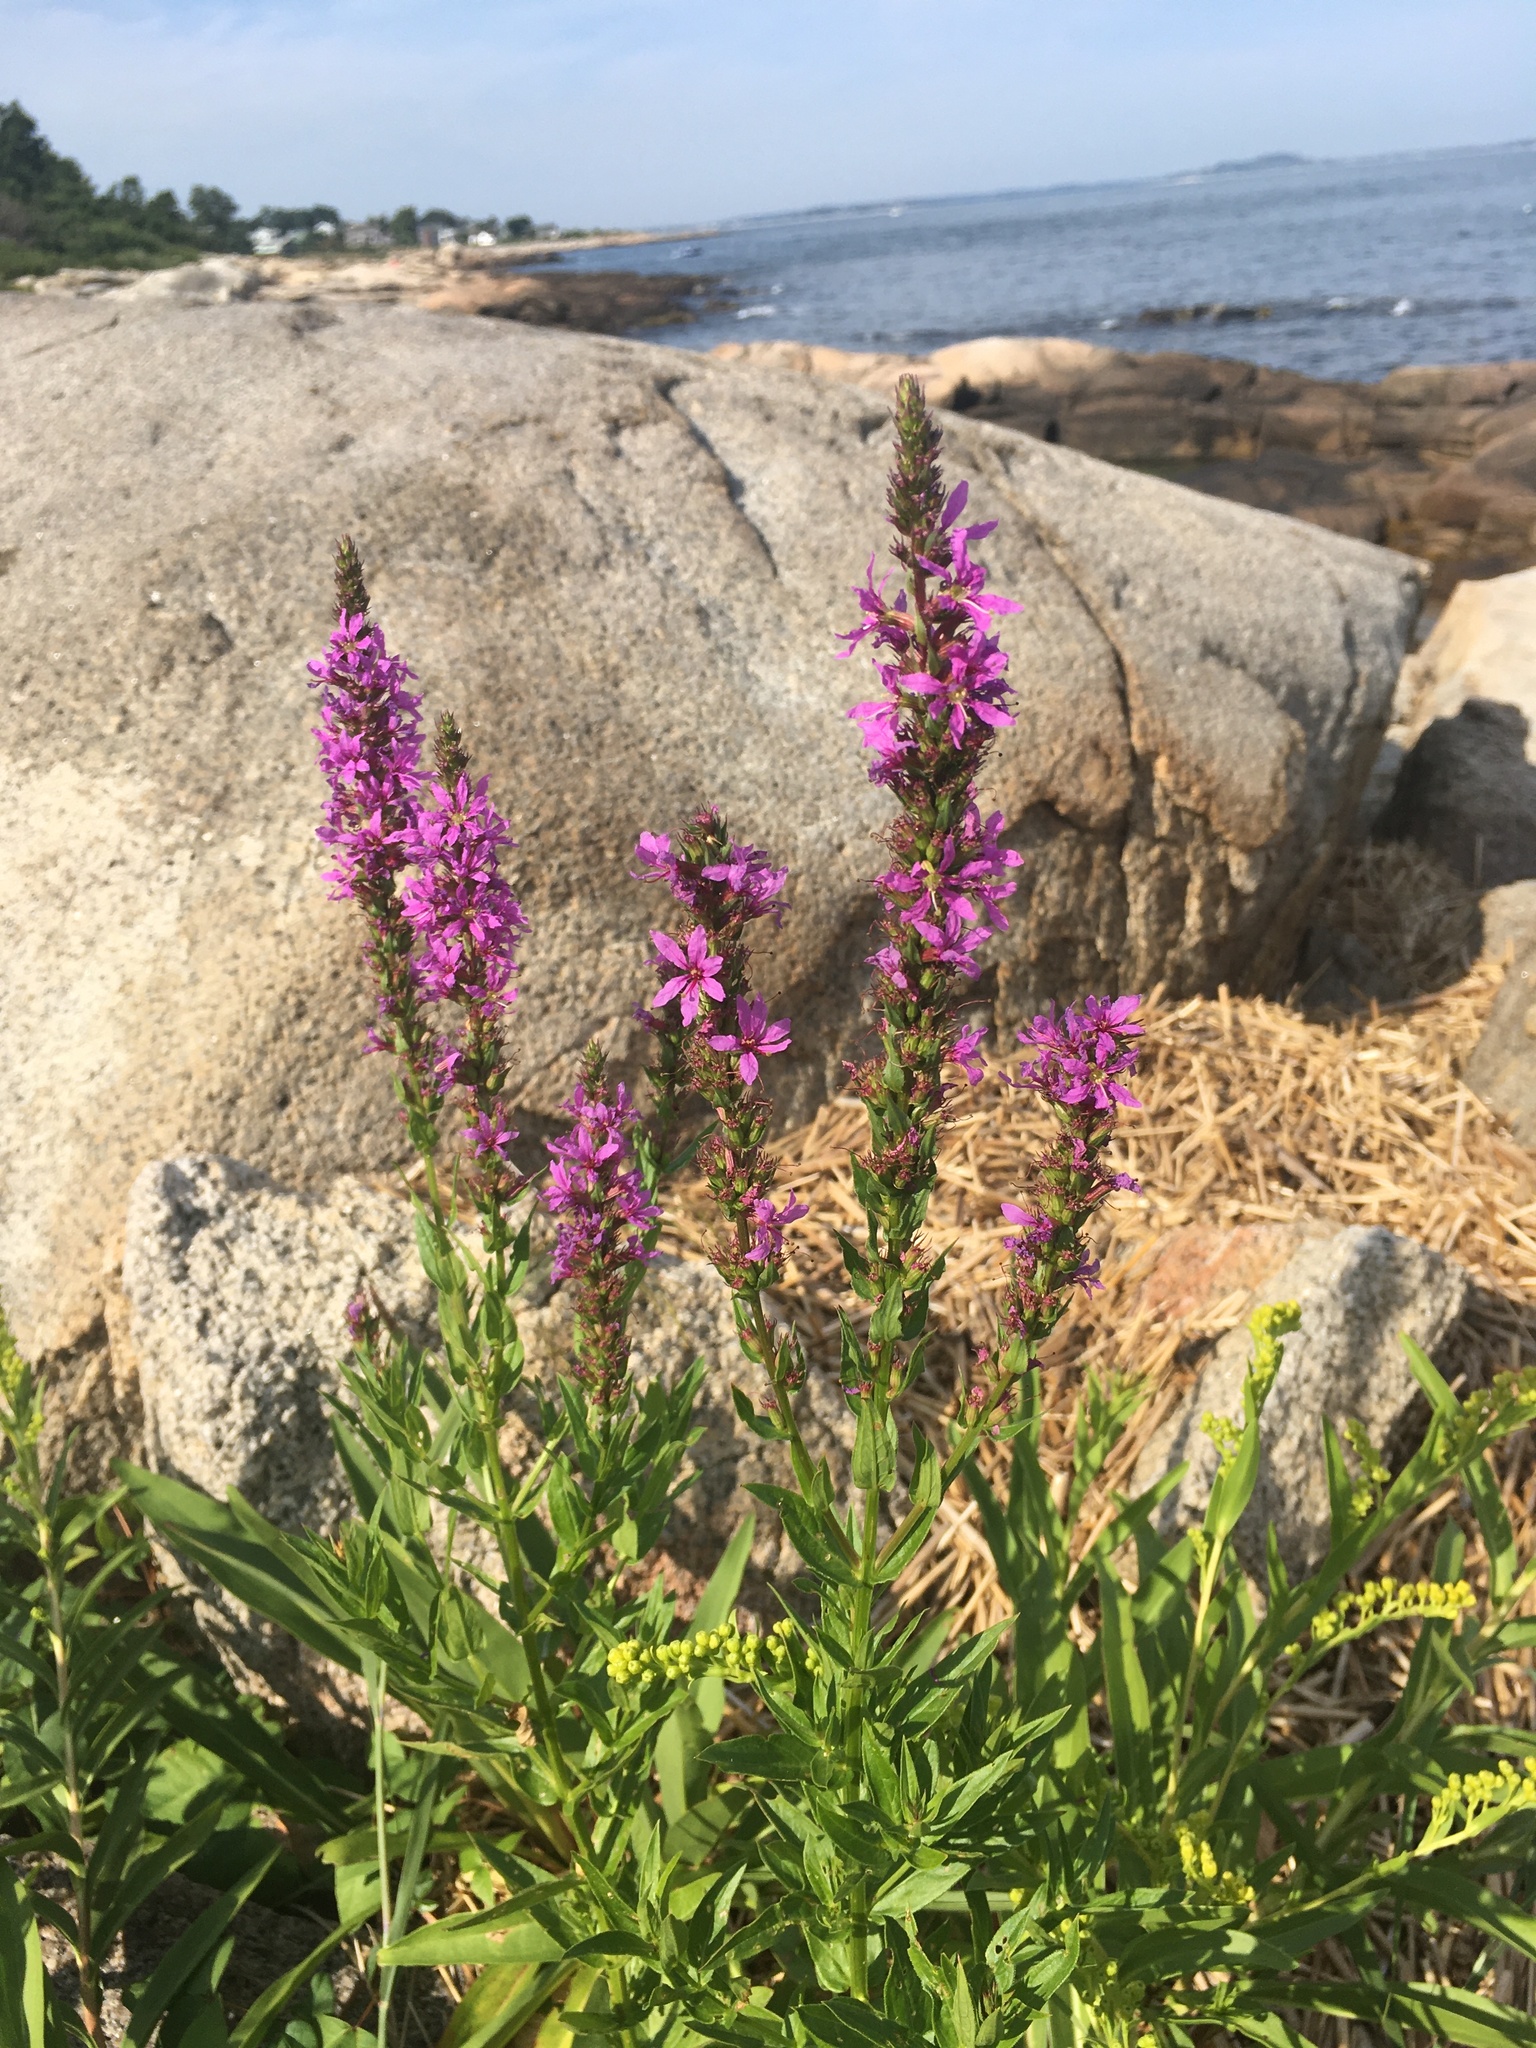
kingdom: Plantae
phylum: Tracheophyta
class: Magnoliopsida
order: Myrtales
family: Lythraceae
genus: Lythrum
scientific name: Lythrum salicaria
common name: Purple loosestrife
